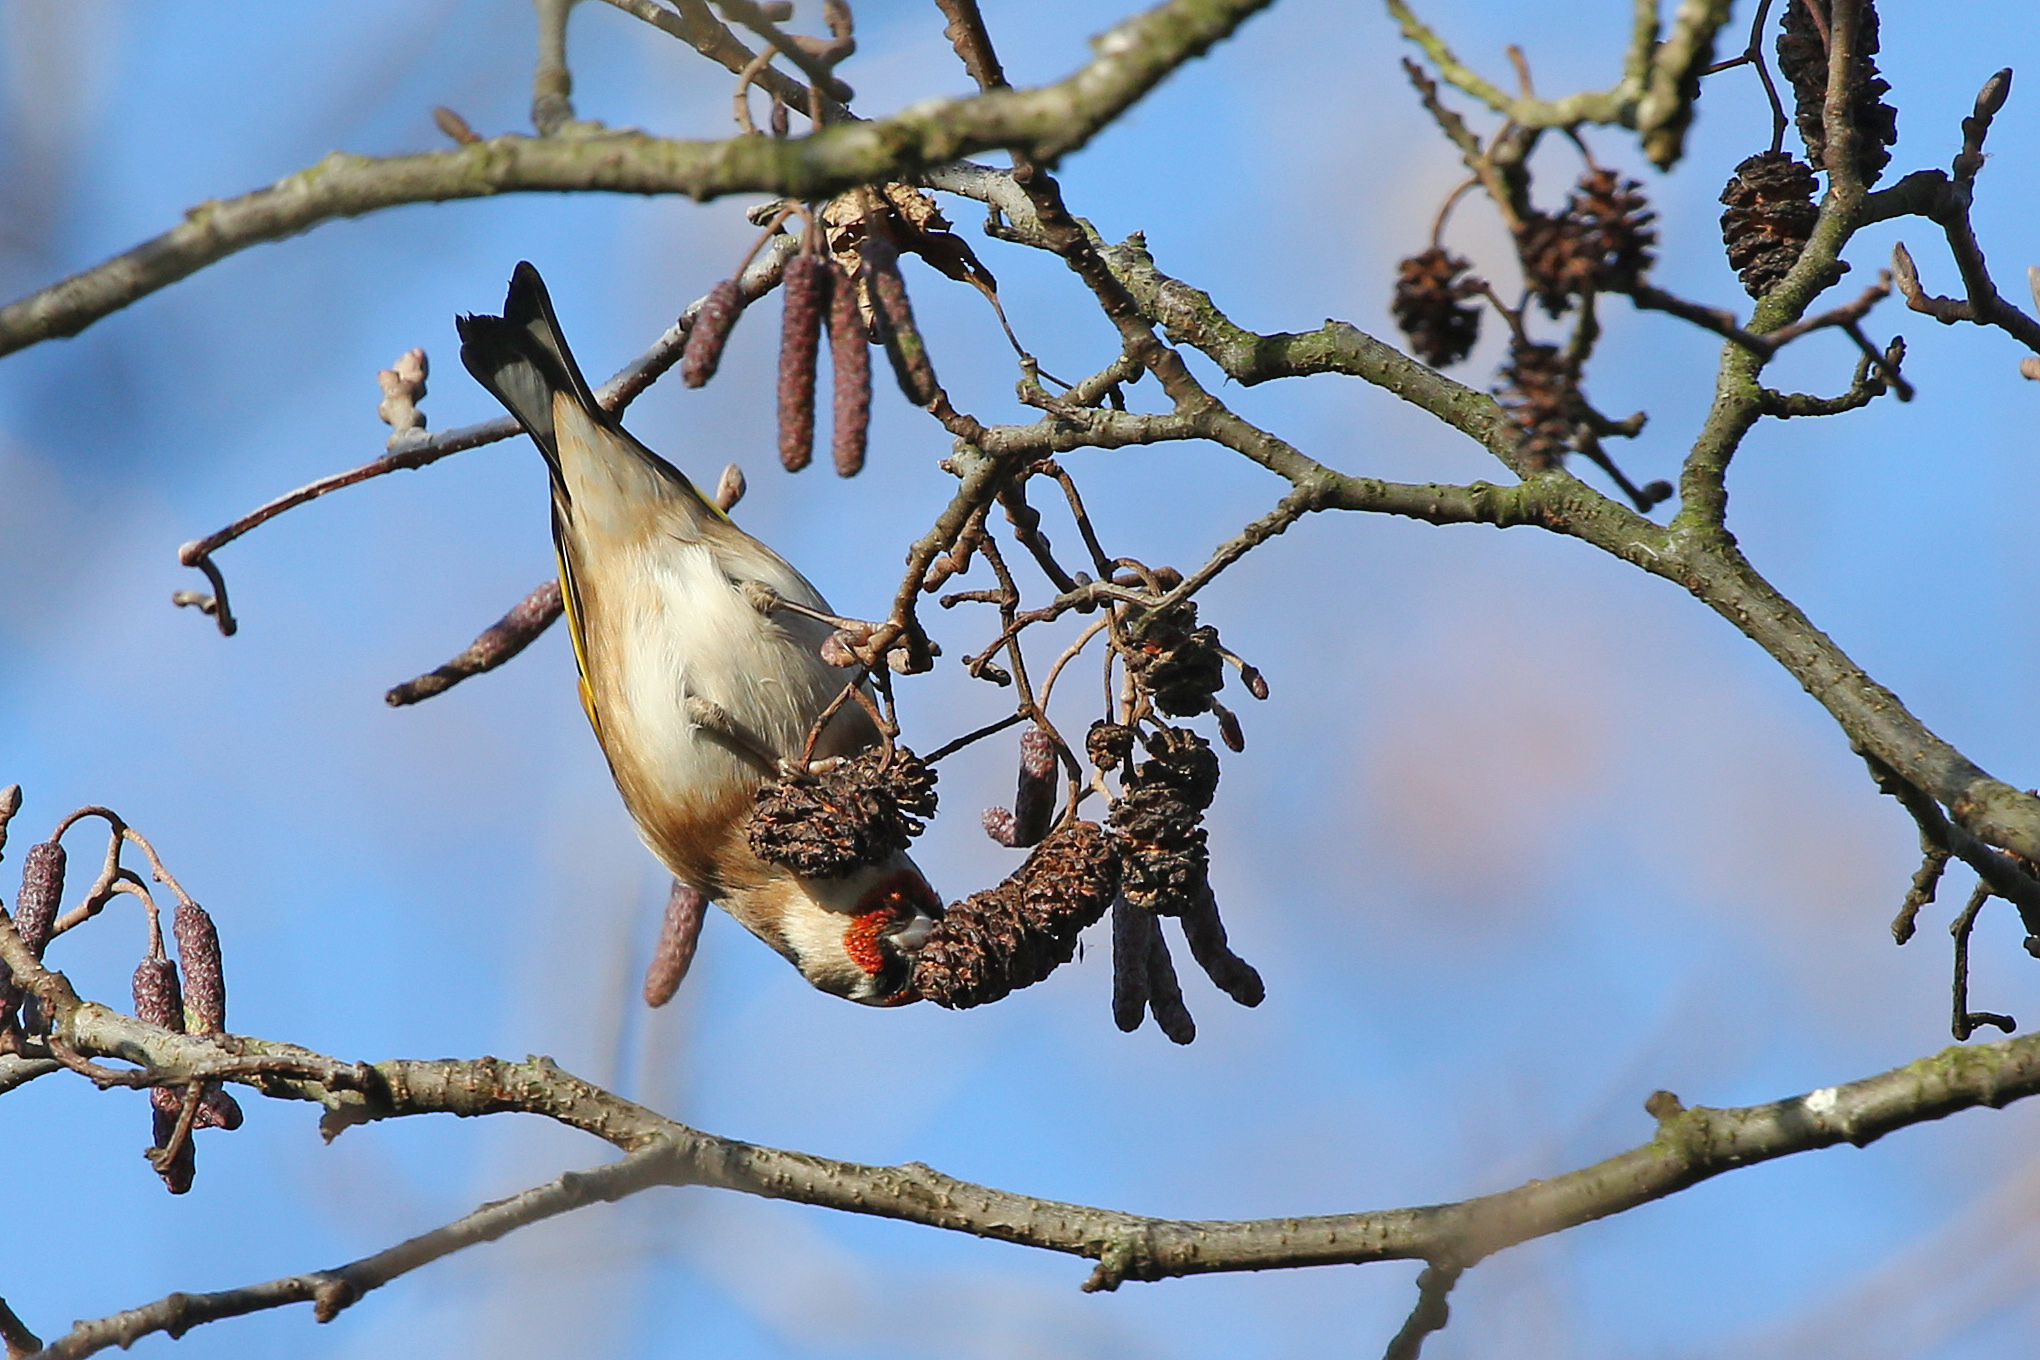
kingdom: Animalia
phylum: Chordata
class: Aves
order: Passeriformes
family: Fringillidae
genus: Carduelis
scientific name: Carduelis carduelis
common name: European goldfinch
